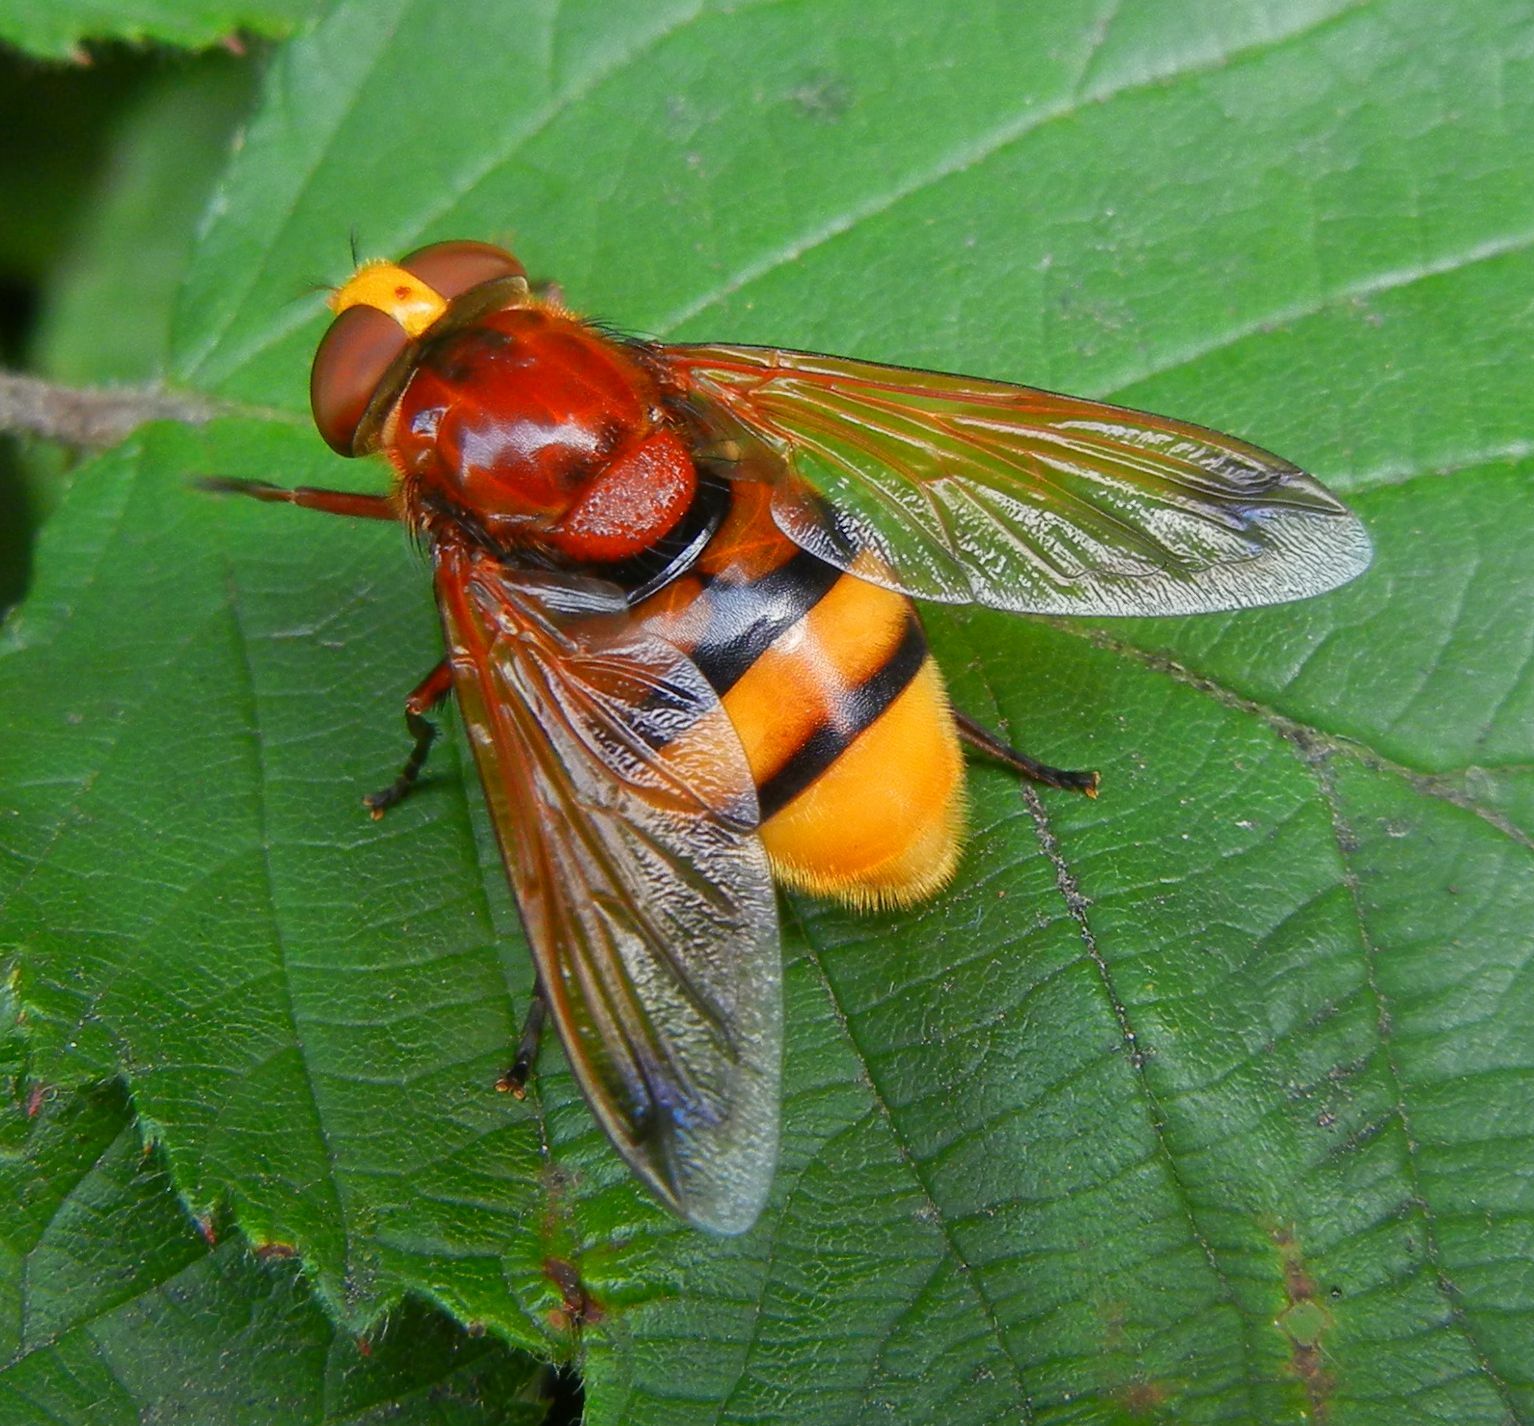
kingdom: Animalia
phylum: Arthropoda
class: Insecta
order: Diptera
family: Syrphidae
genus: Volucella
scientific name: Volucella zonaria
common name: Hornet hoverfly
